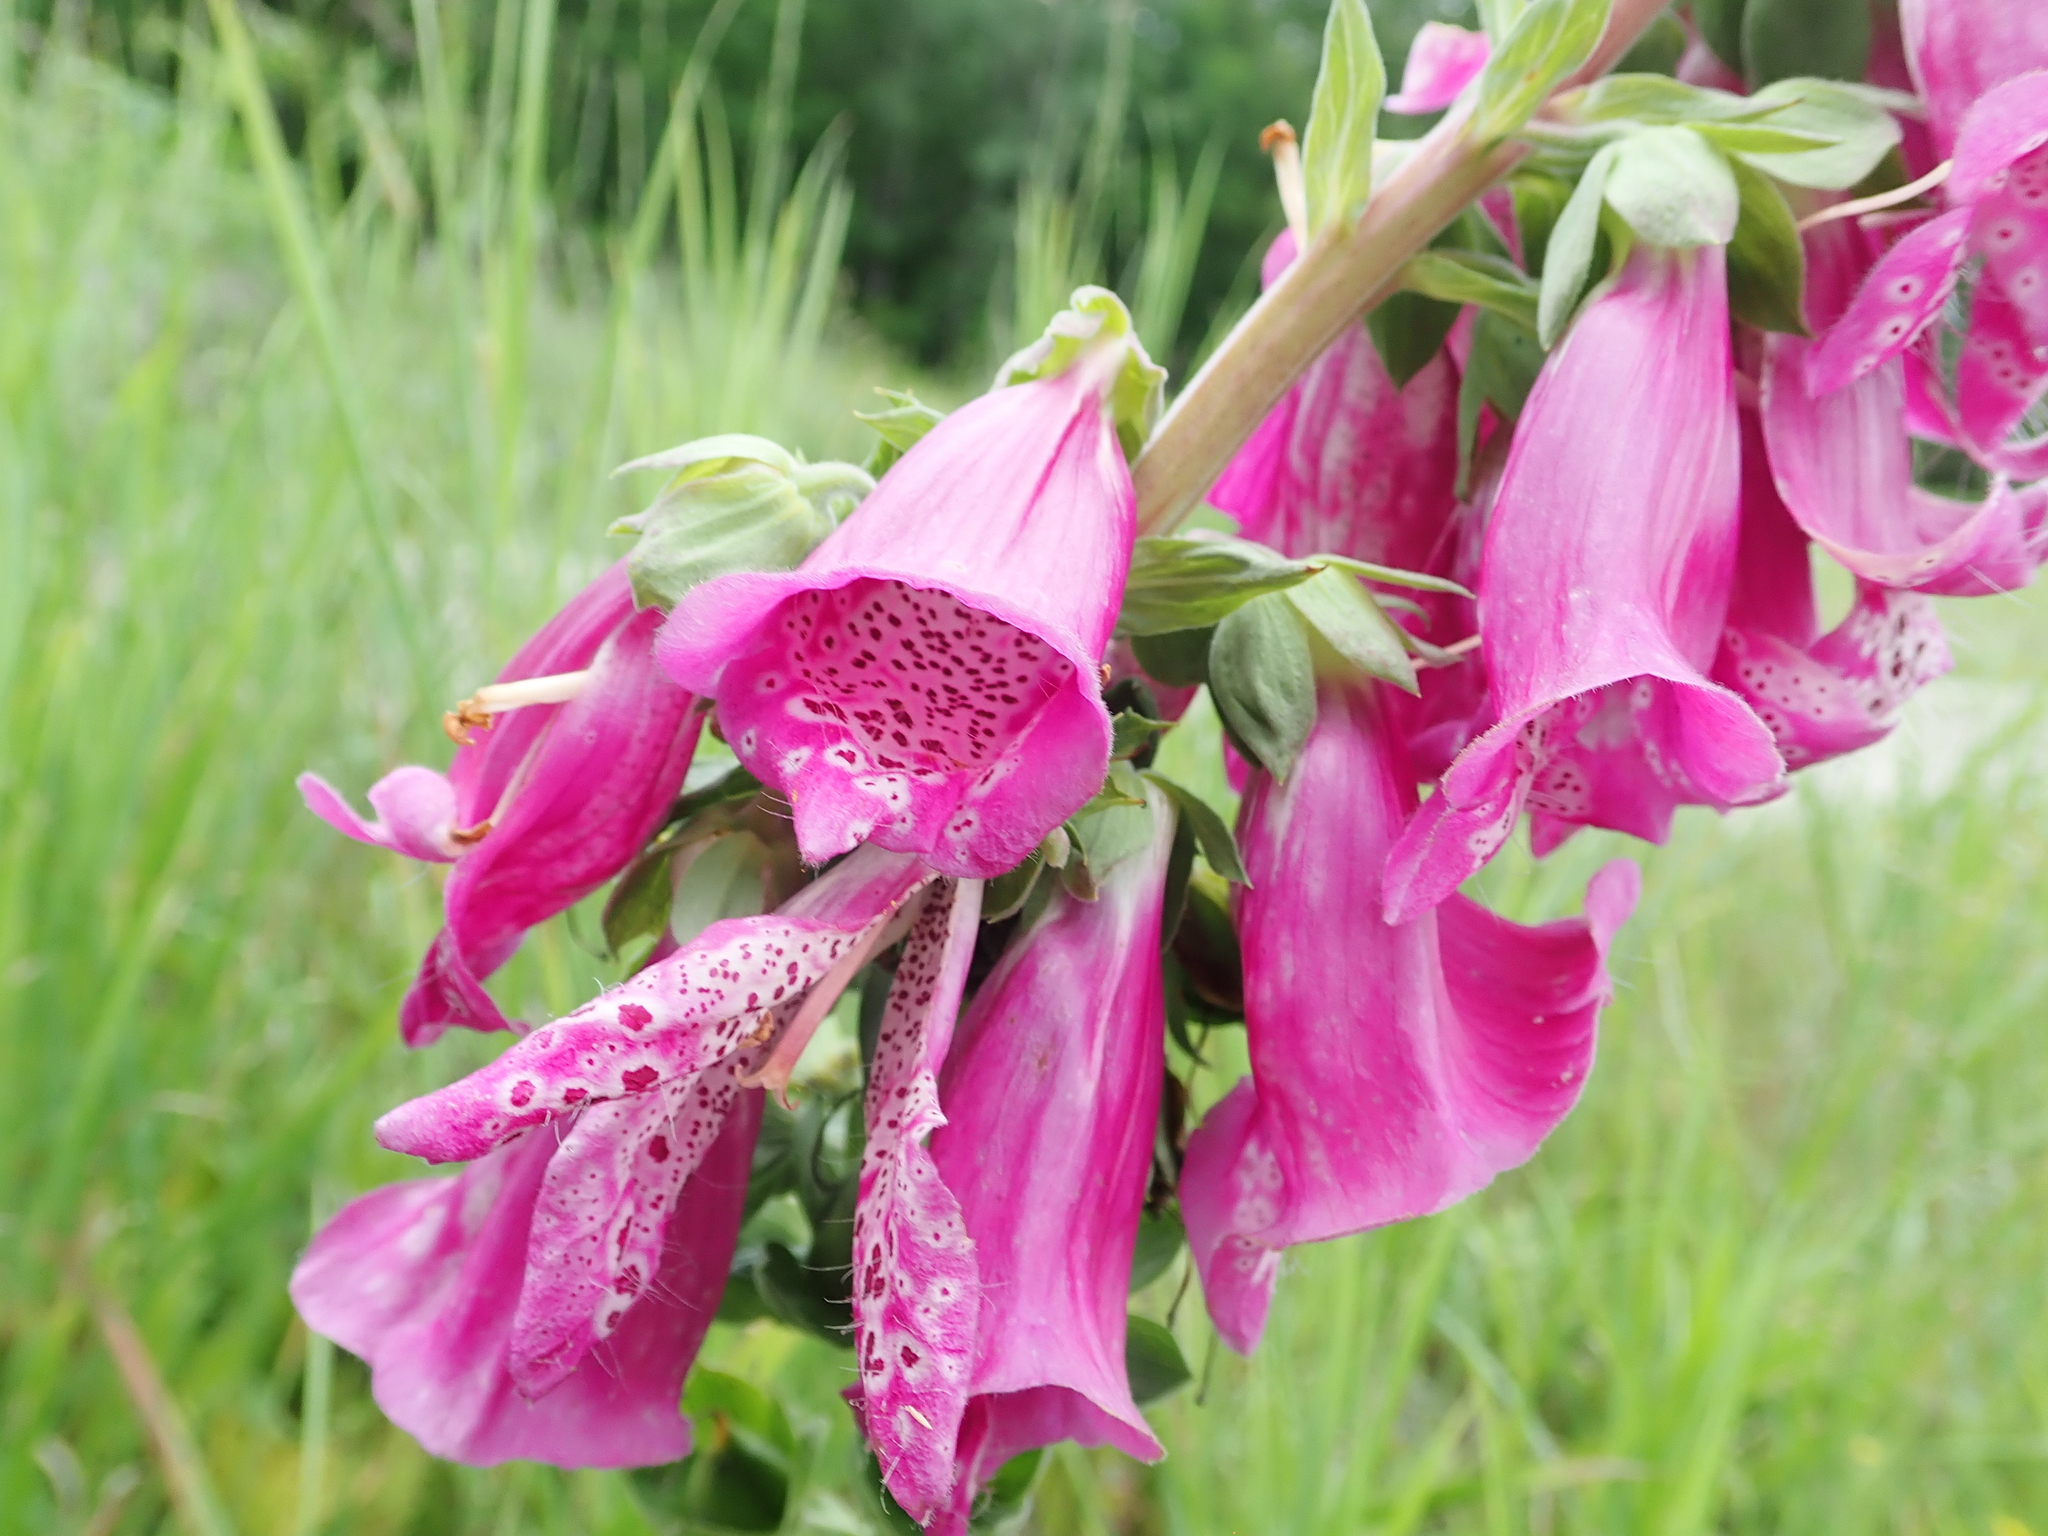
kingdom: Plantae
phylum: Tracheophyta
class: Magnoliopsida
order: Lamiales
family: Plantaginaceae
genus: Digitalis
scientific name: Digitalis purpurea
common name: Foxglove
